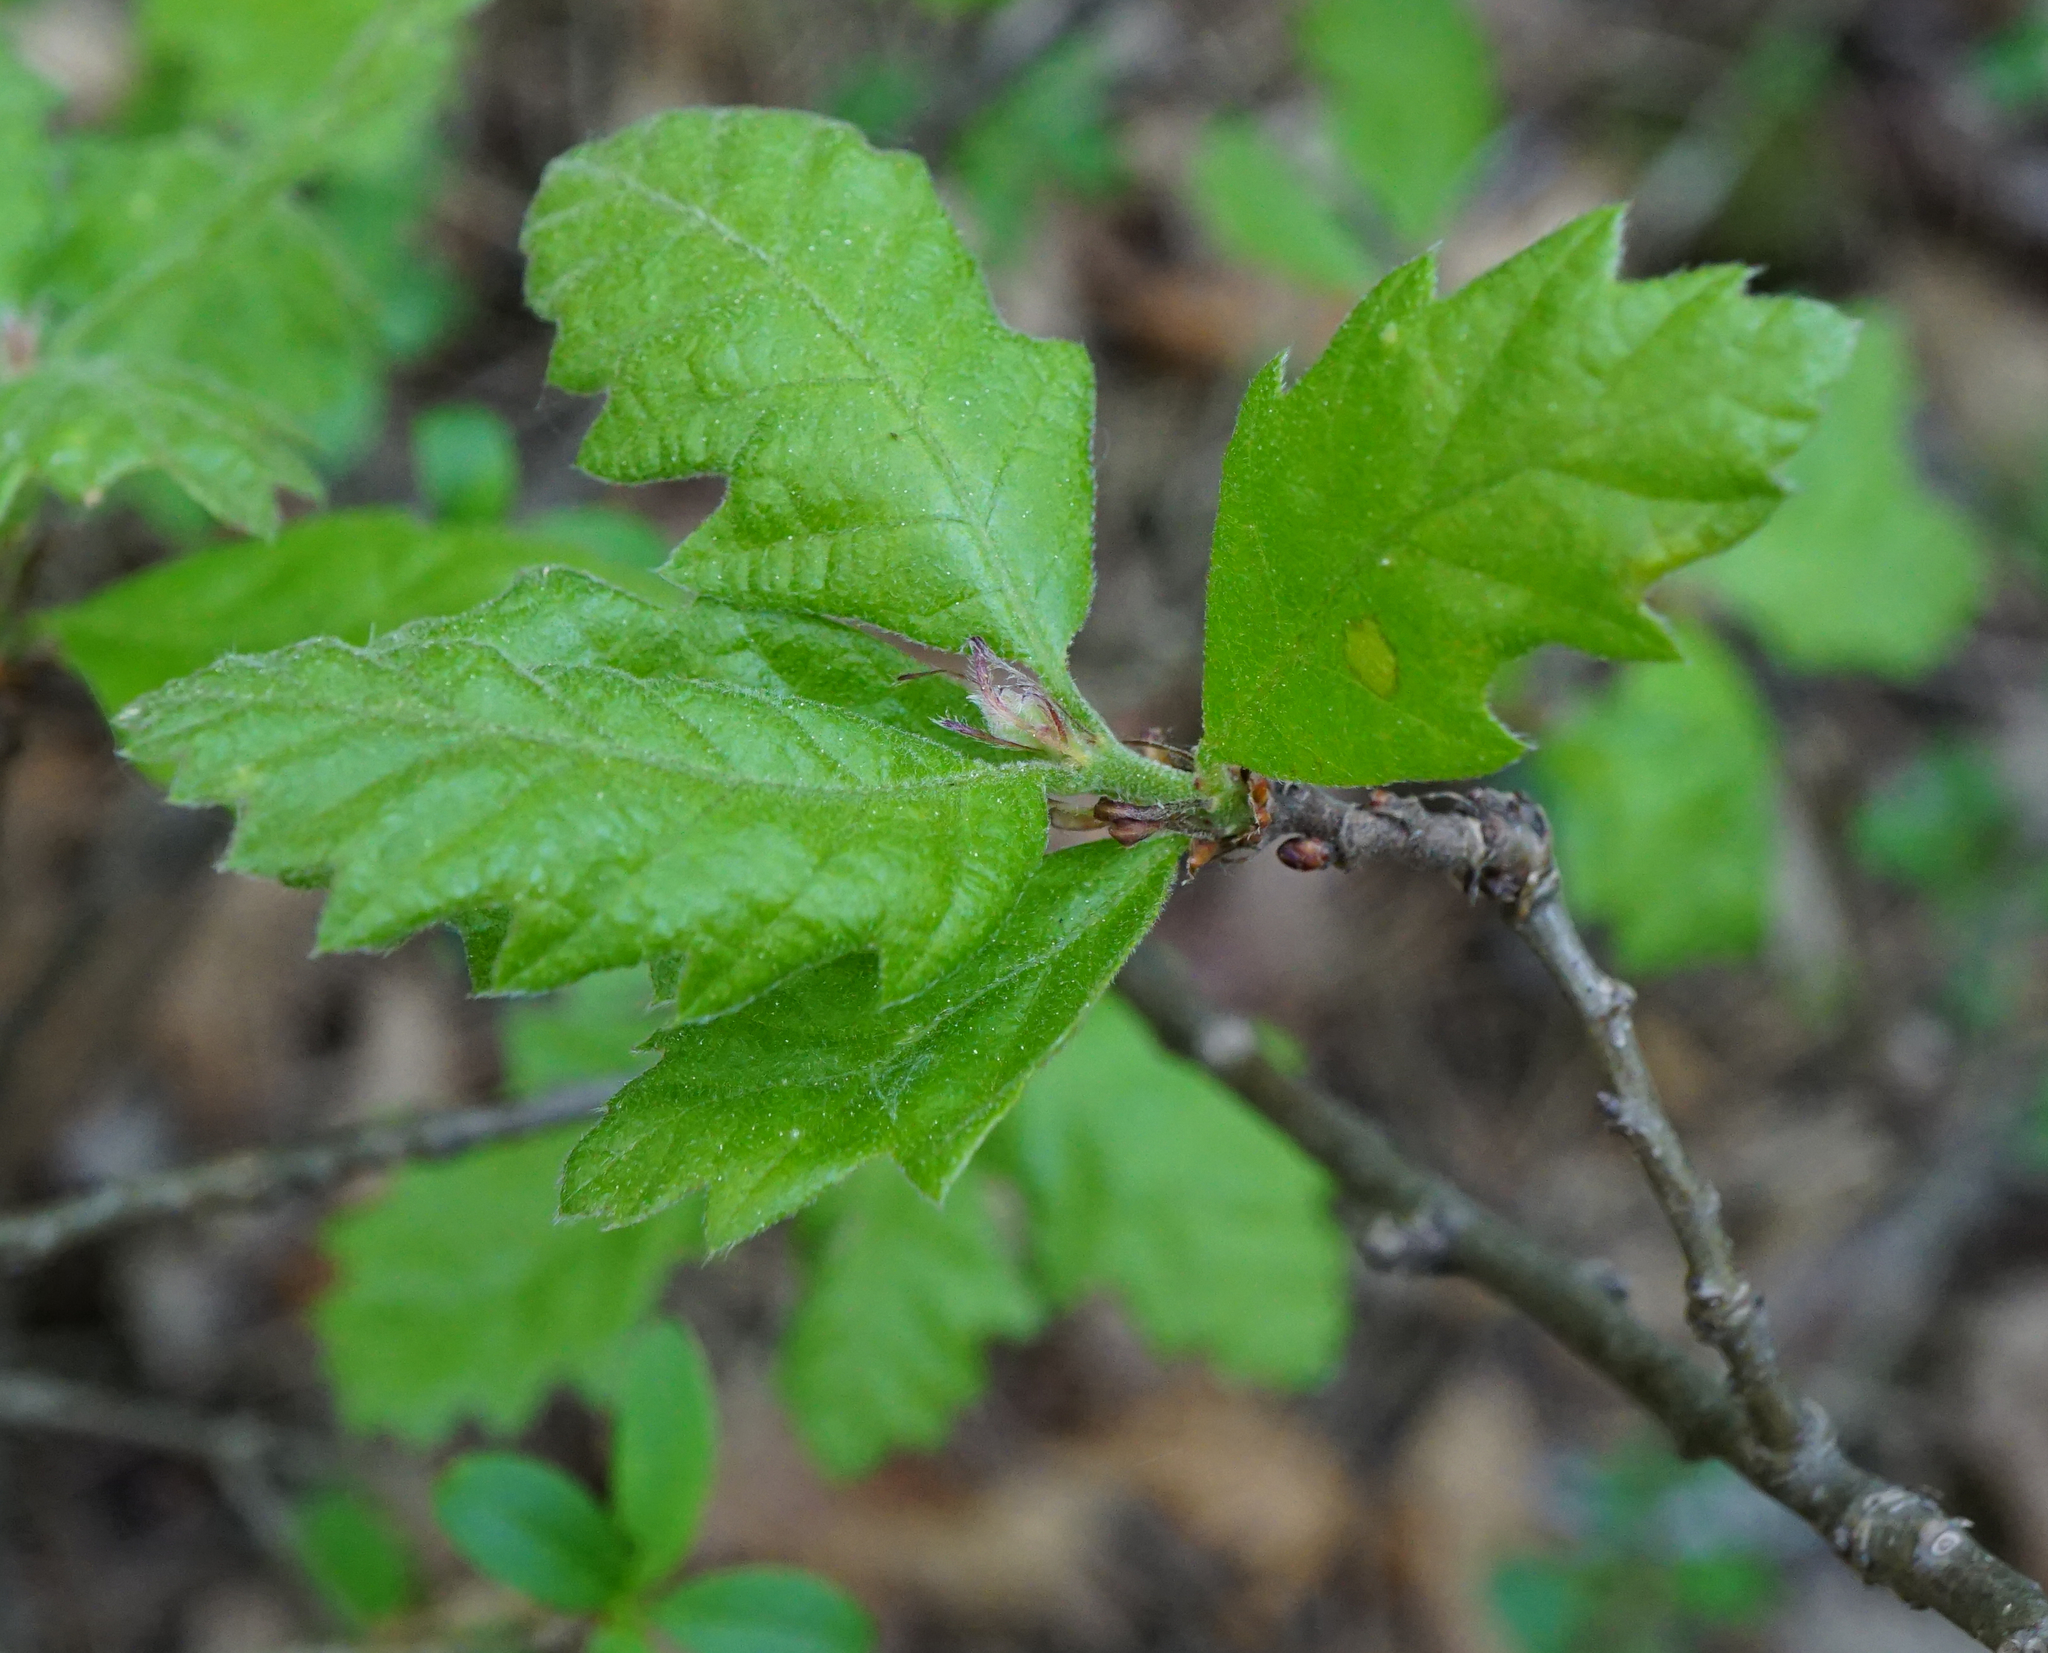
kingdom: Plantae
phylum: Tracheophyta
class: Magnoliopsida
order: Fagales
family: Fagaceae
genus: Quercus
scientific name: Quercus cerris
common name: Turkey oak
